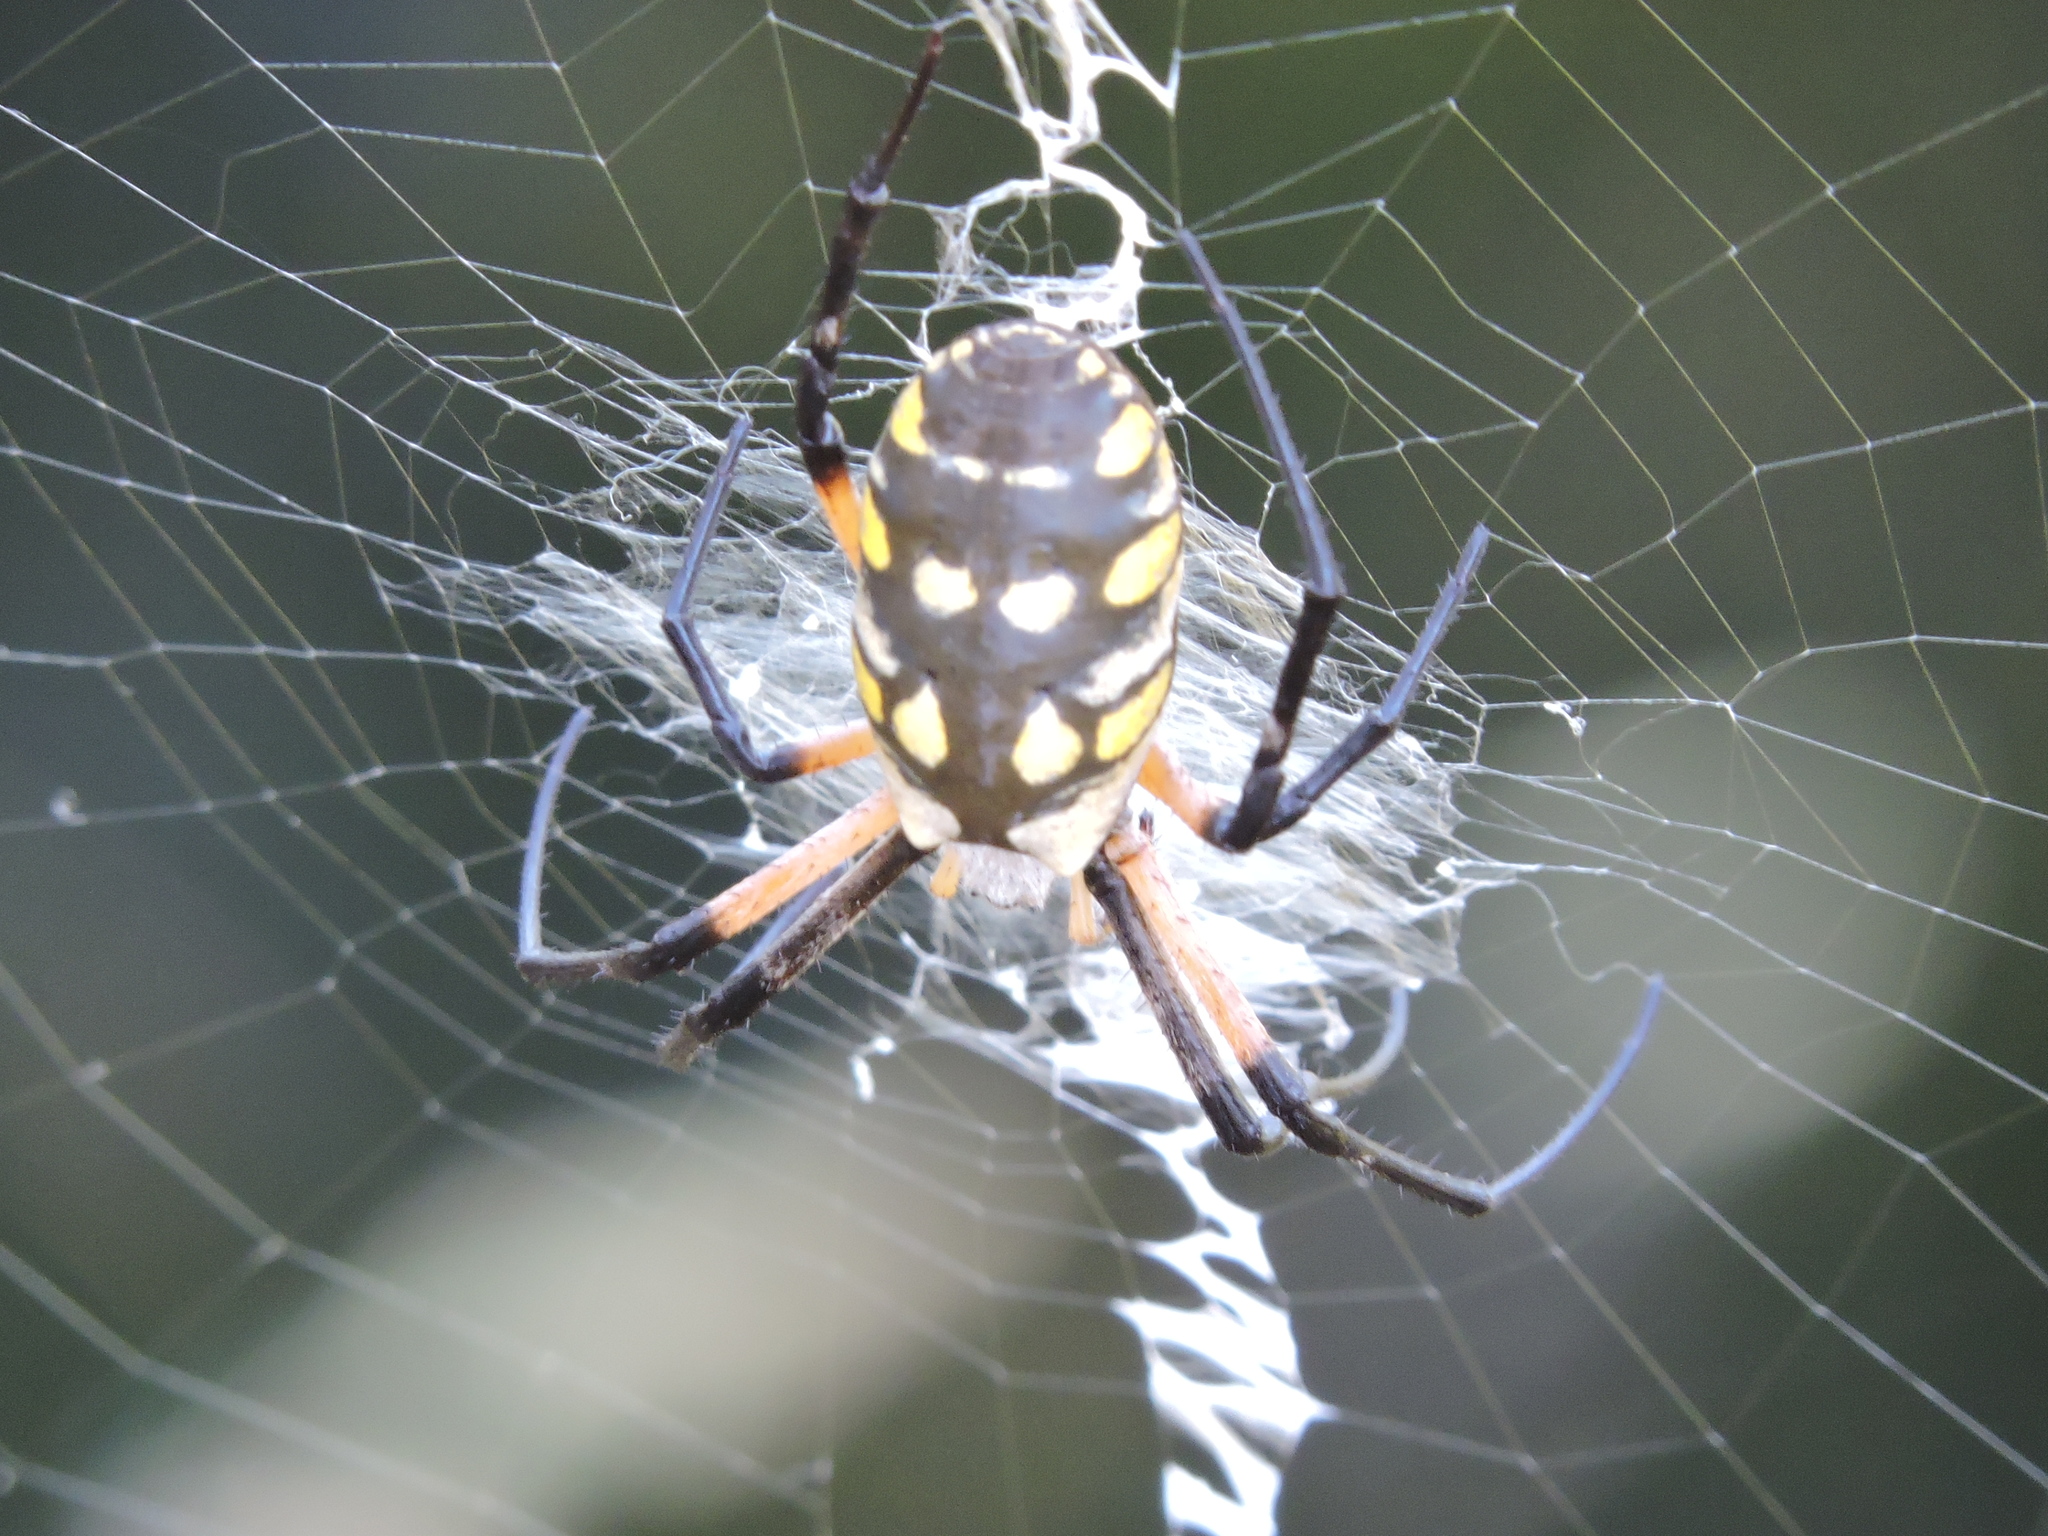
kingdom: Animalia
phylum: Arthropoda
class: Arachnida
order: Araneae
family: Araneidae
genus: Argiope
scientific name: Argiope aurantia
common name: Orb weavers
